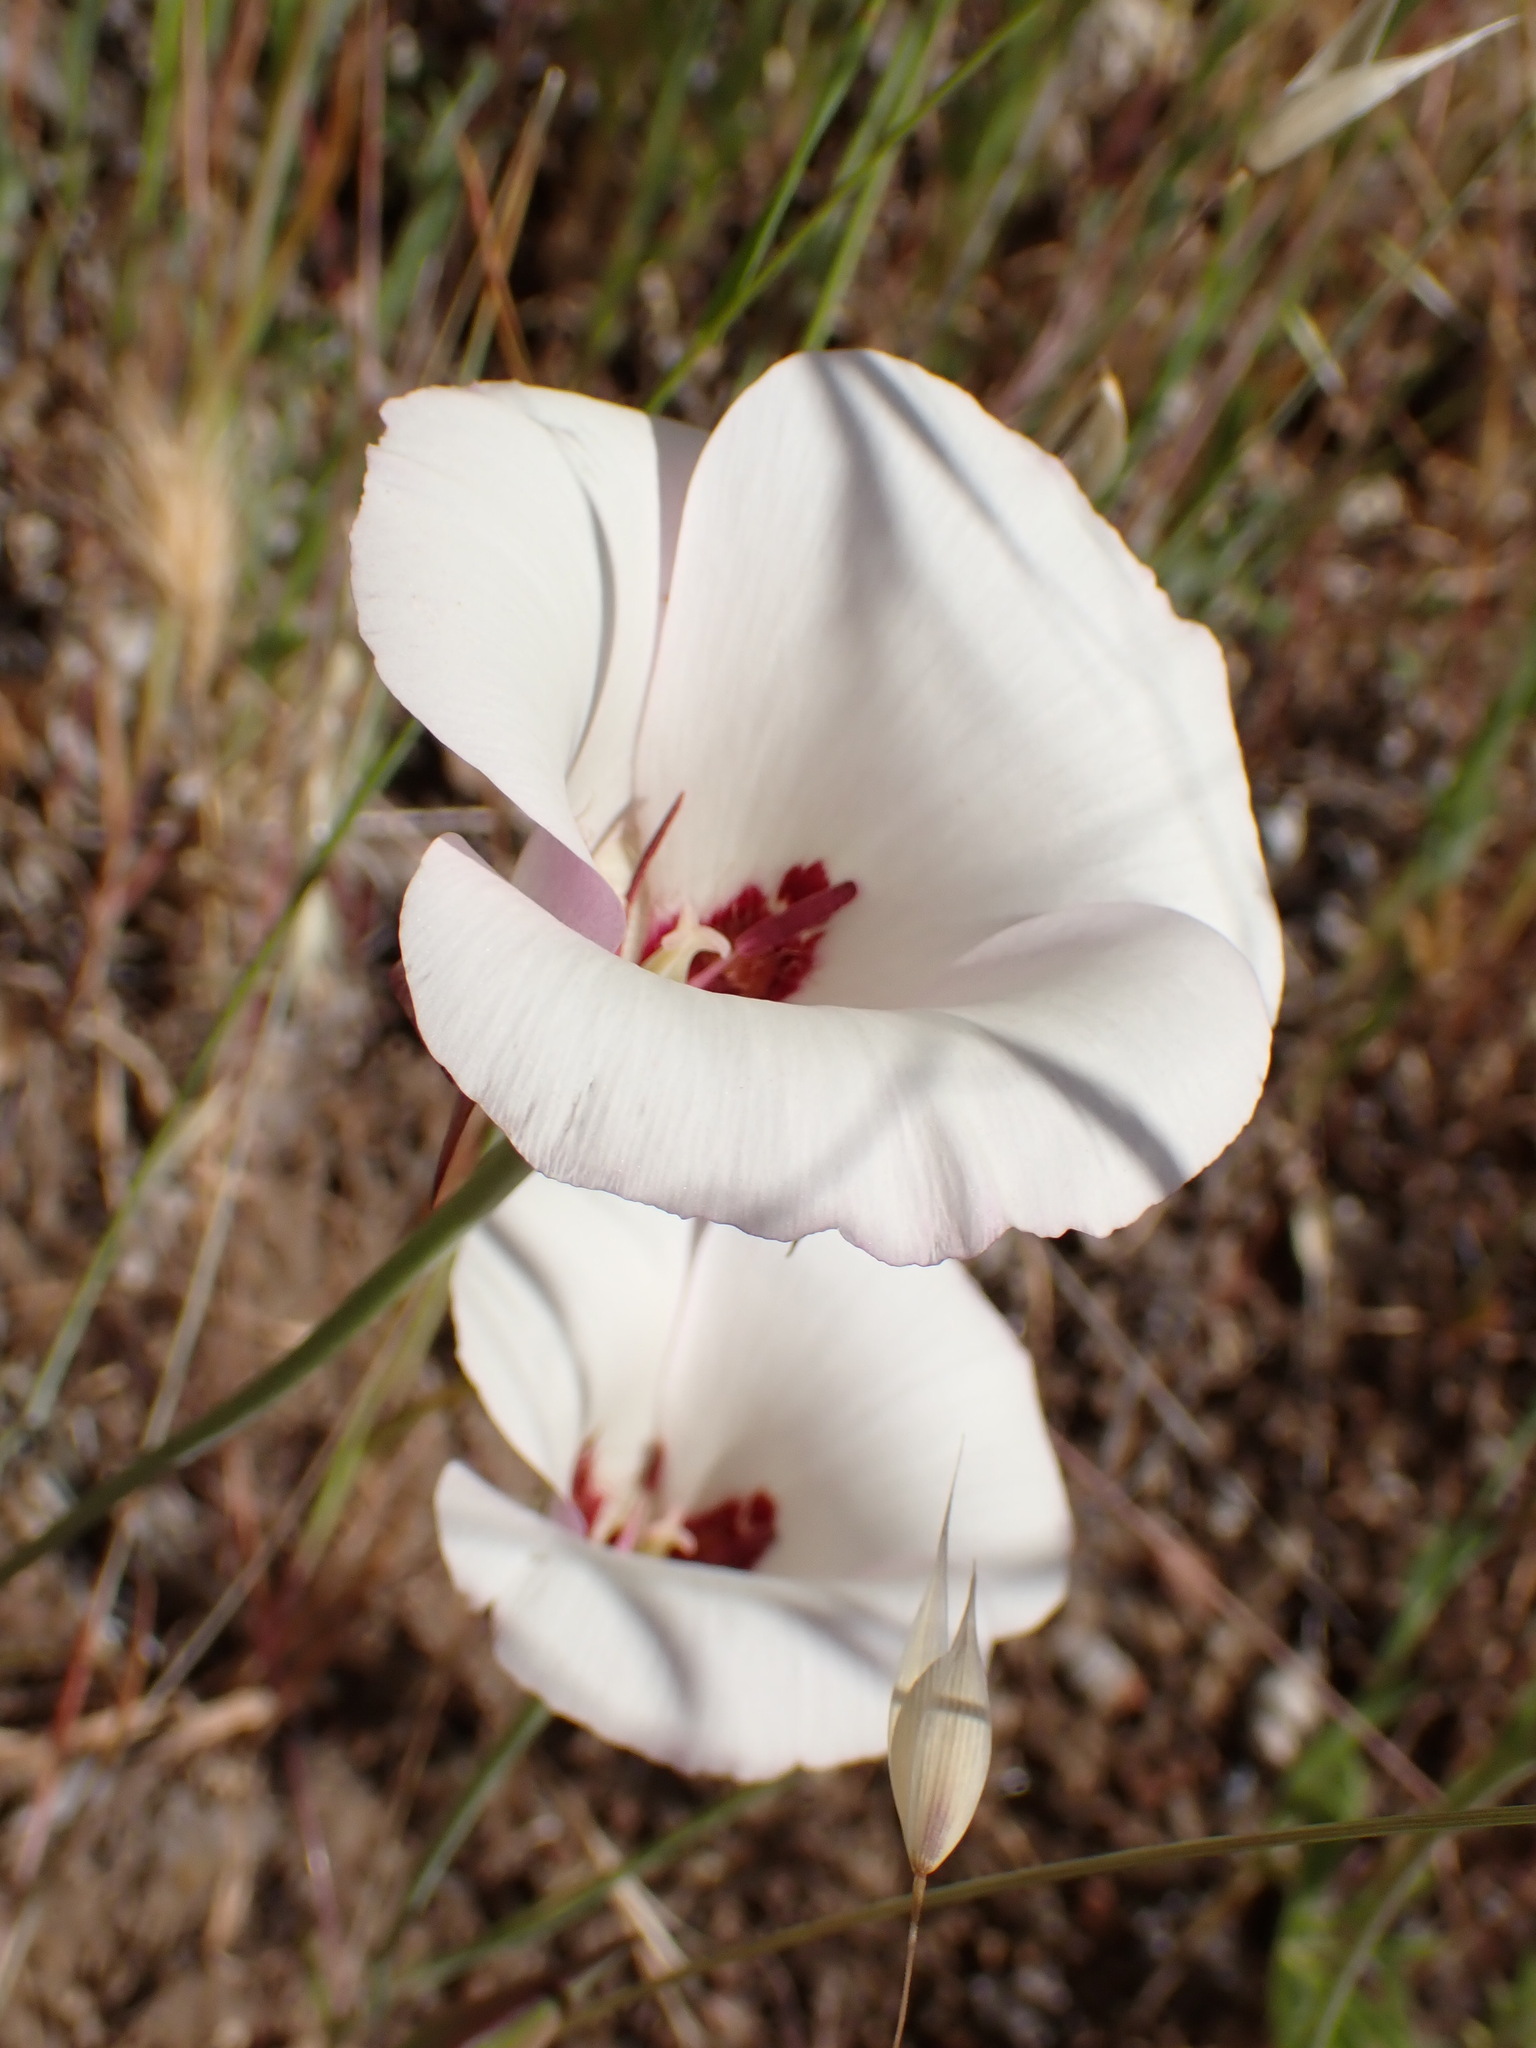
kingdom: Plantae
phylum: Tracheophyta
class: Liliopsida
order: Liliales
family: Liliaceae
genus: Calochortus
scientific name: Calochortus simulans
